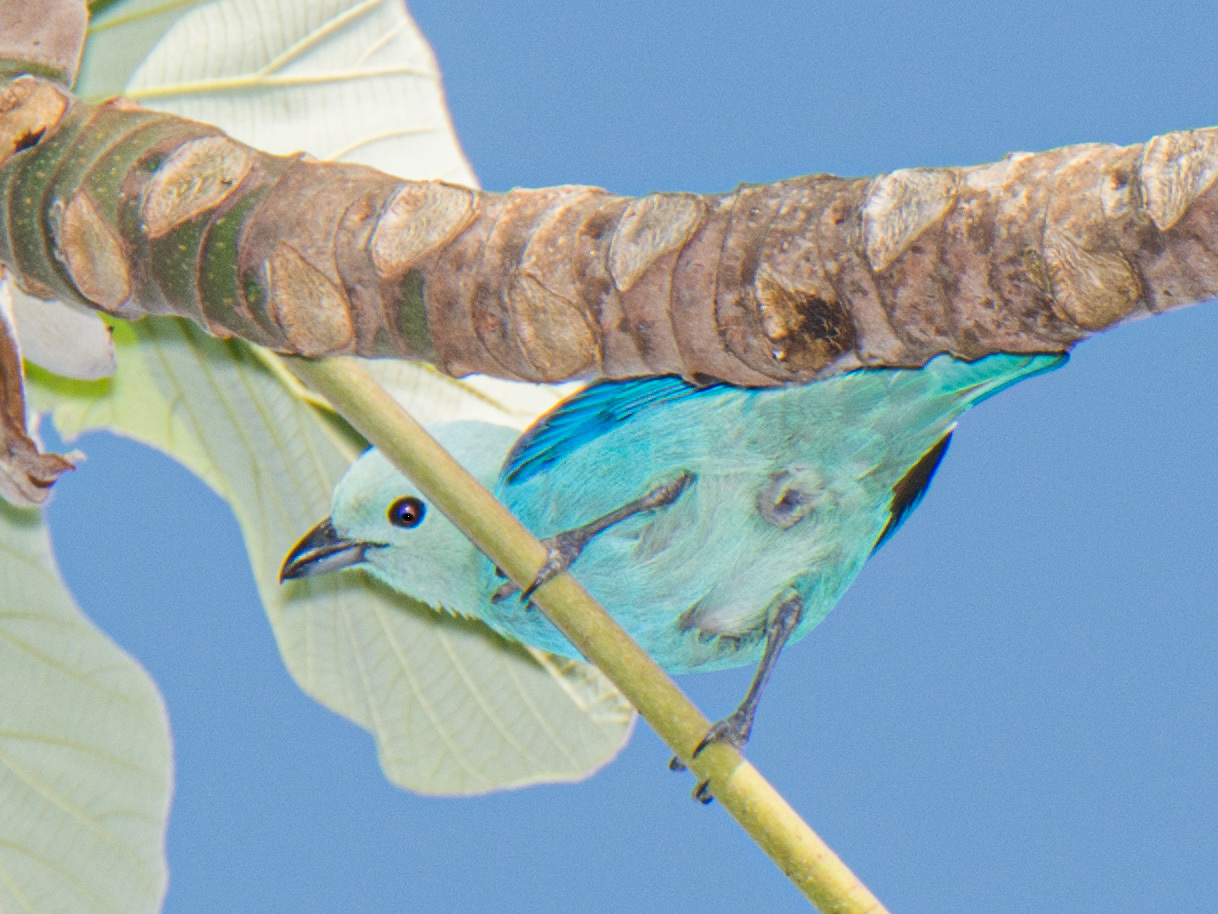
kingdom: Animalia
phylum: Chordata
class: Aves
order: Passeriformes
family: Thraupidae
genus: Thraupis
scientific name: Thraupis episcopus
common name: Blue-grey tanager
